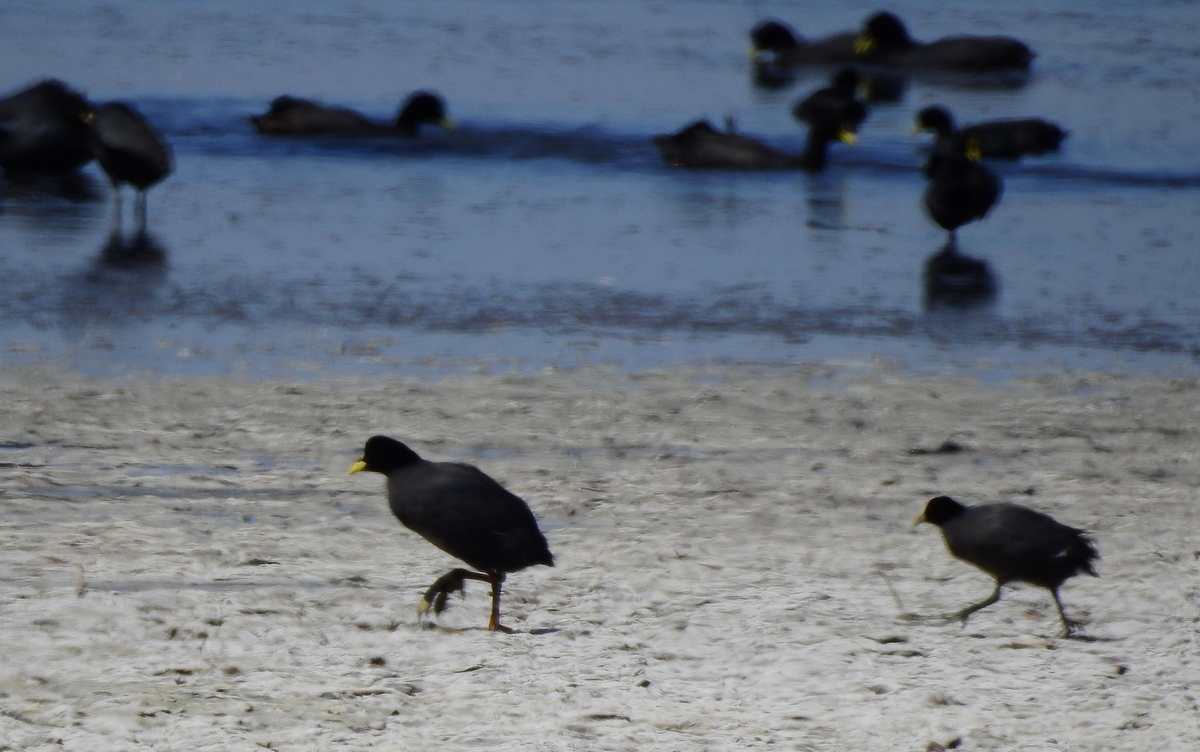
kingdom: Animalia
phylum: Chordata
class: Aves
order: Gruiformes
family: Rallidae
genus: Fulica
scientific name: Fulica armillata
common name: Red-gartered coot
